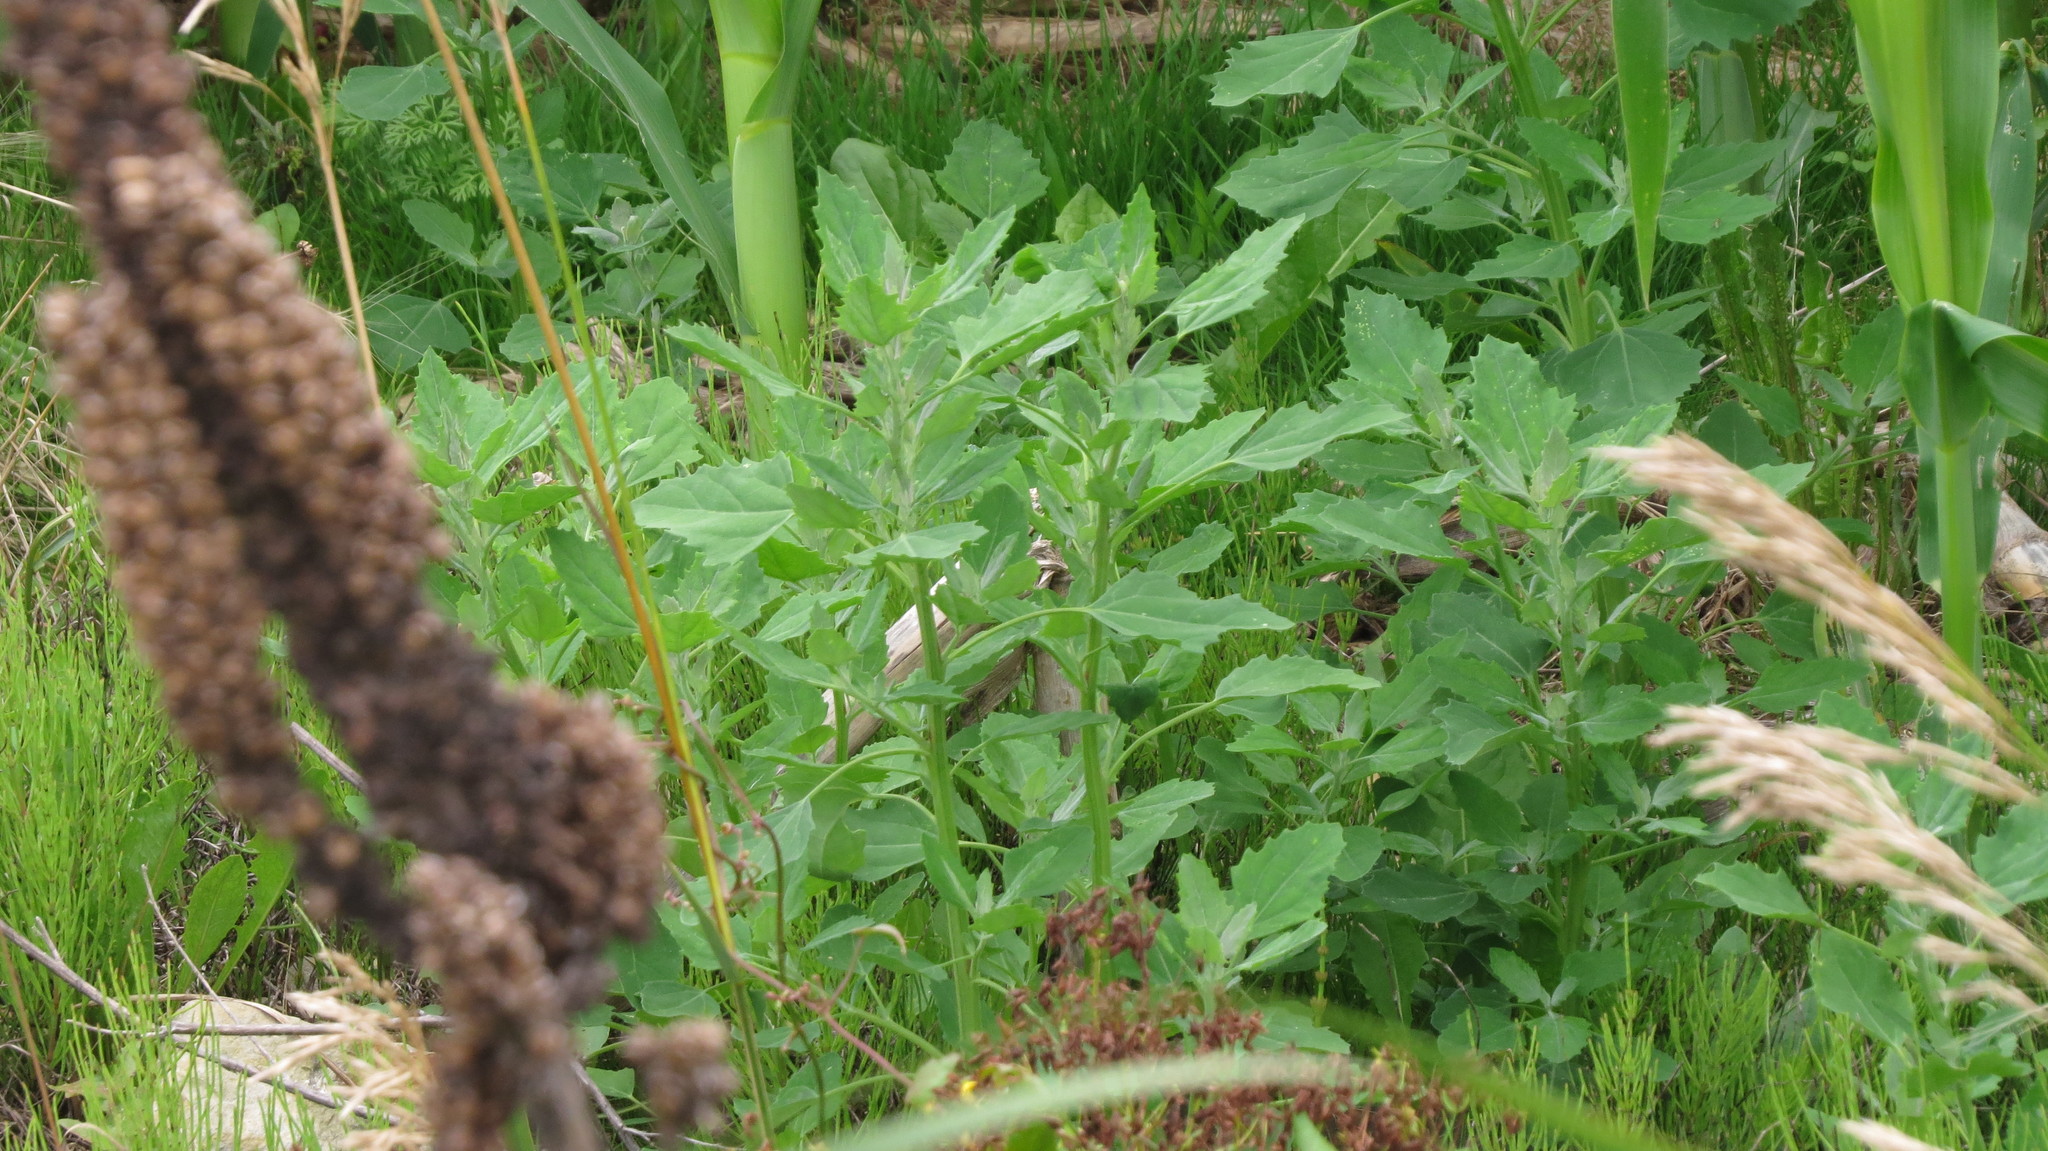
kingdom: Plantae
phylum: Tracheophyta
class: Magnoliopsida
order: Caryophyllales
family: Amaranthaceae
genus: Chenopodium
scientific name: Chenopodium album
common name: Fat-hen
